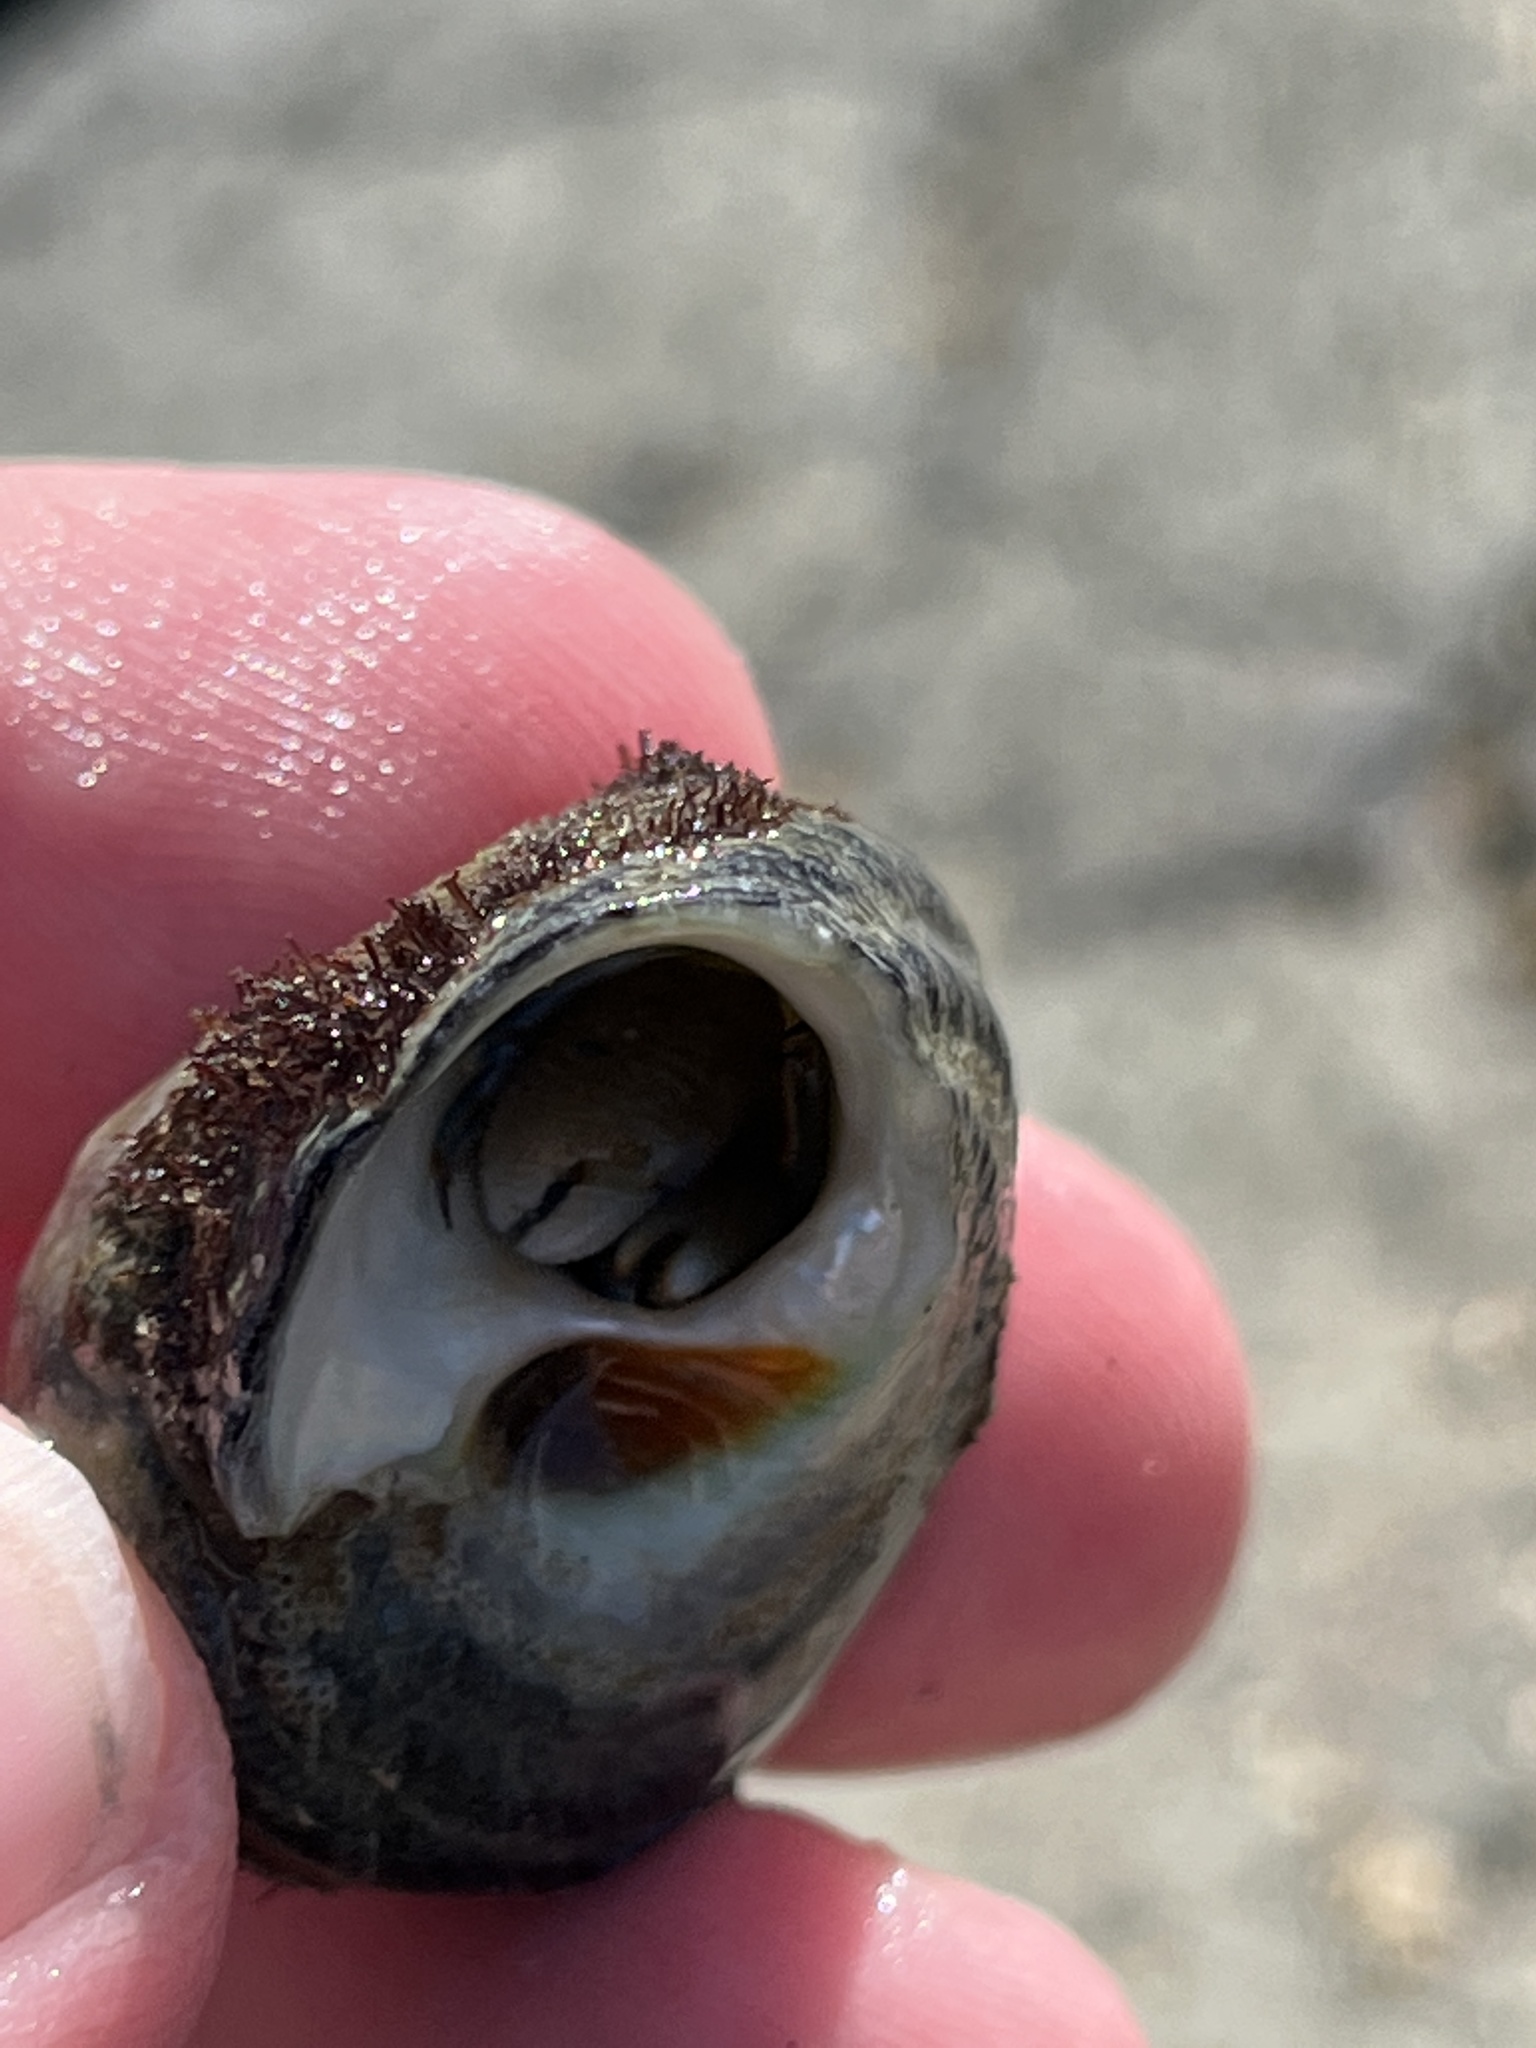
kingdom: Animalia
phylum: Arthropoda
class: Malacostraca
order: Decapoda
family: Paguridae
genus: Pagurus
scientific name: Pagurus samuelis
